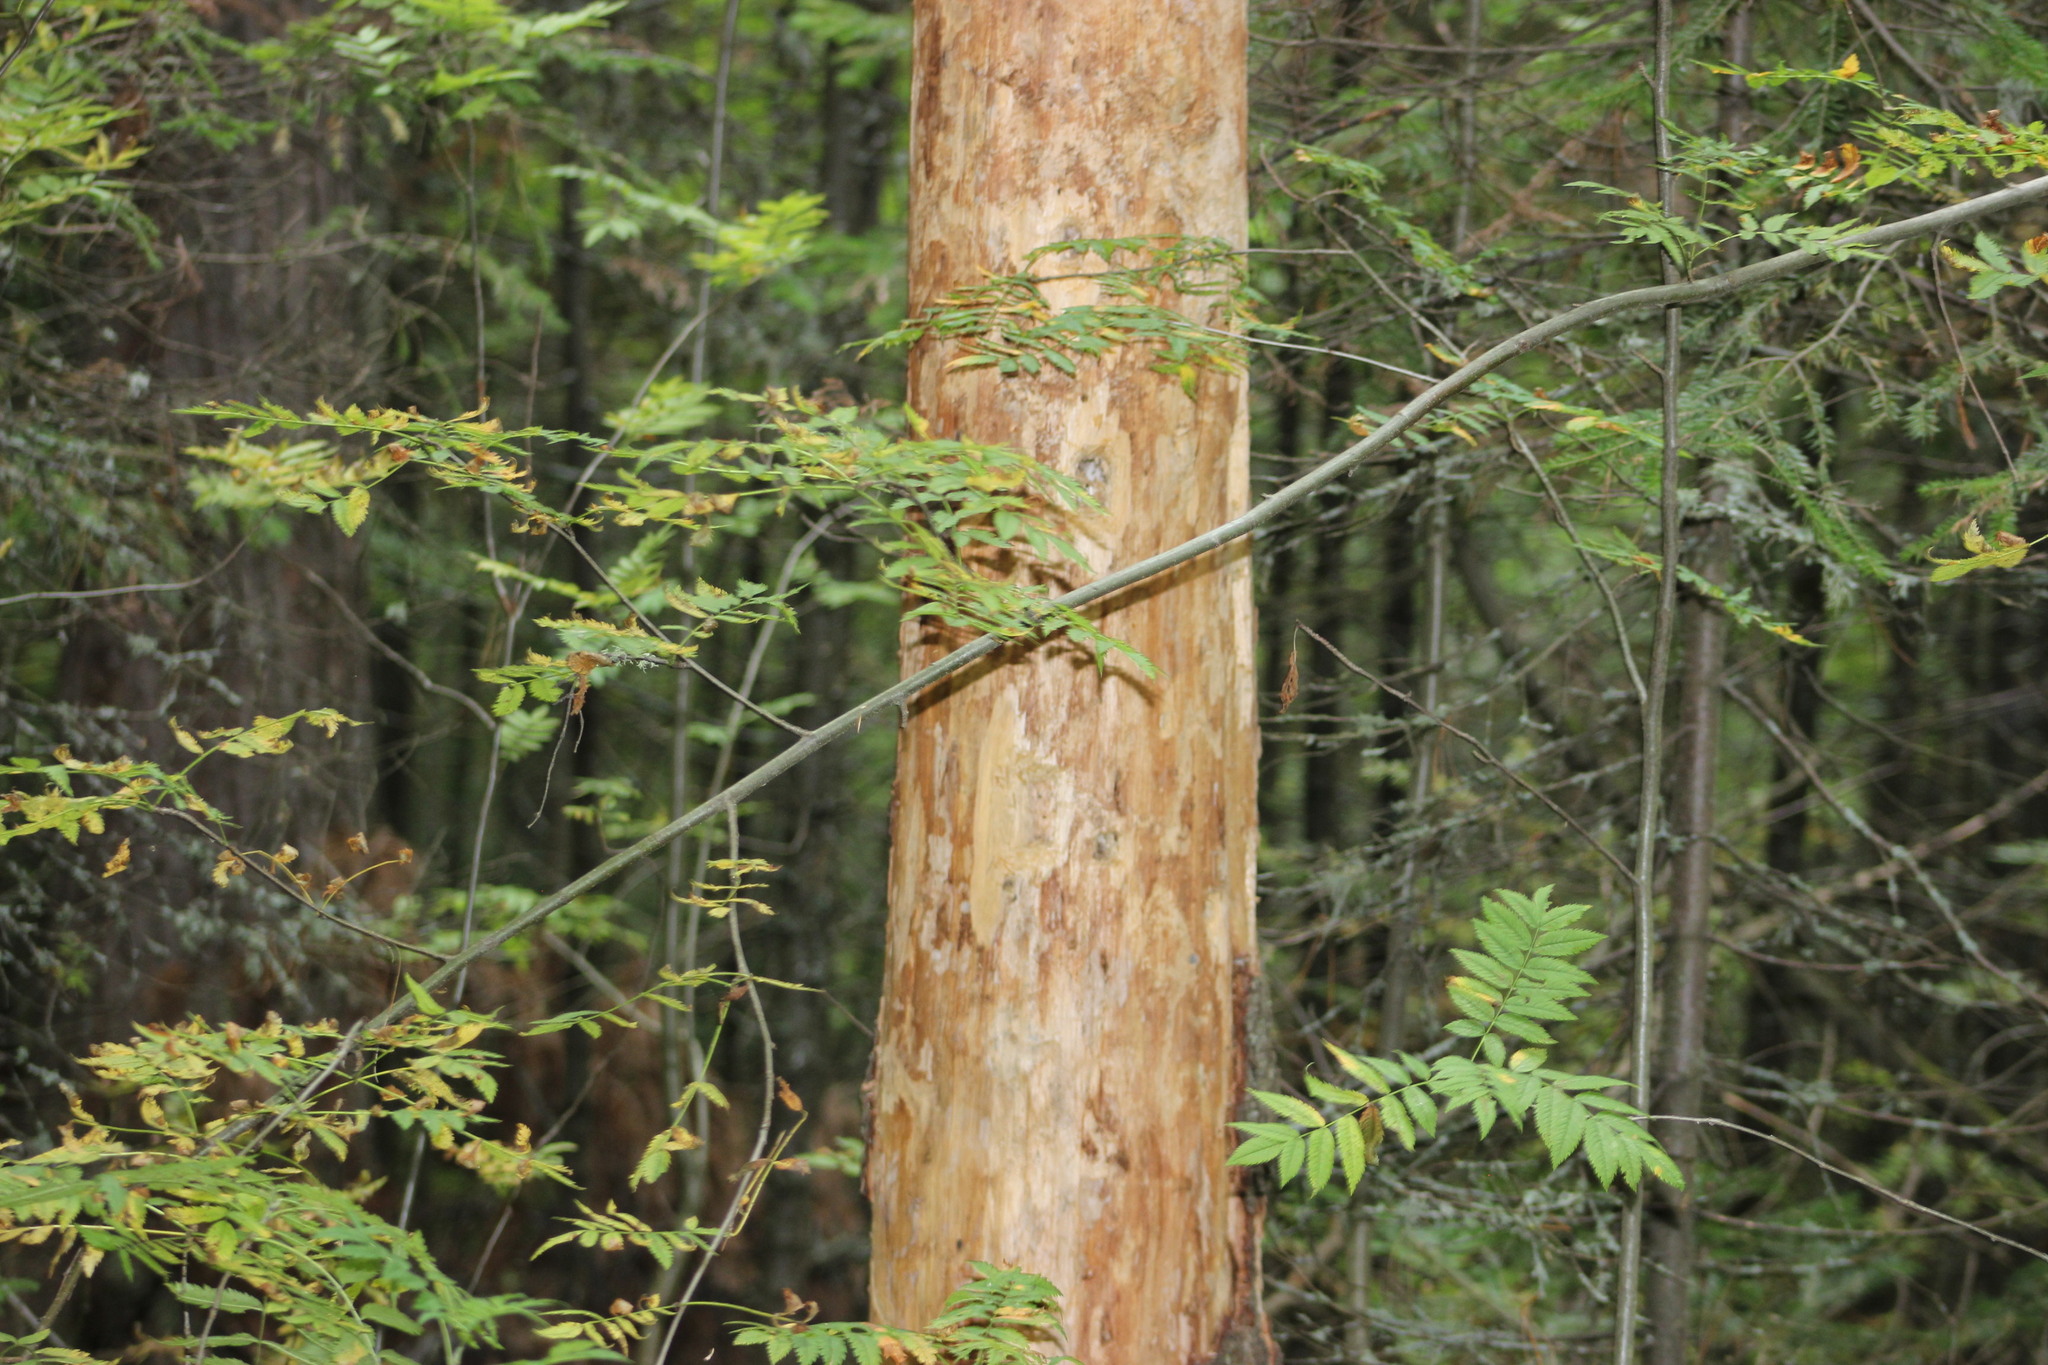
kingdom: Plantae
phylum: Tracheophyta
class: Magnoliopsida
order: Rosales
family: Rosaceae
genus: Sorbus
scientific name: Sorbus aucuparia
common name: Rowan
